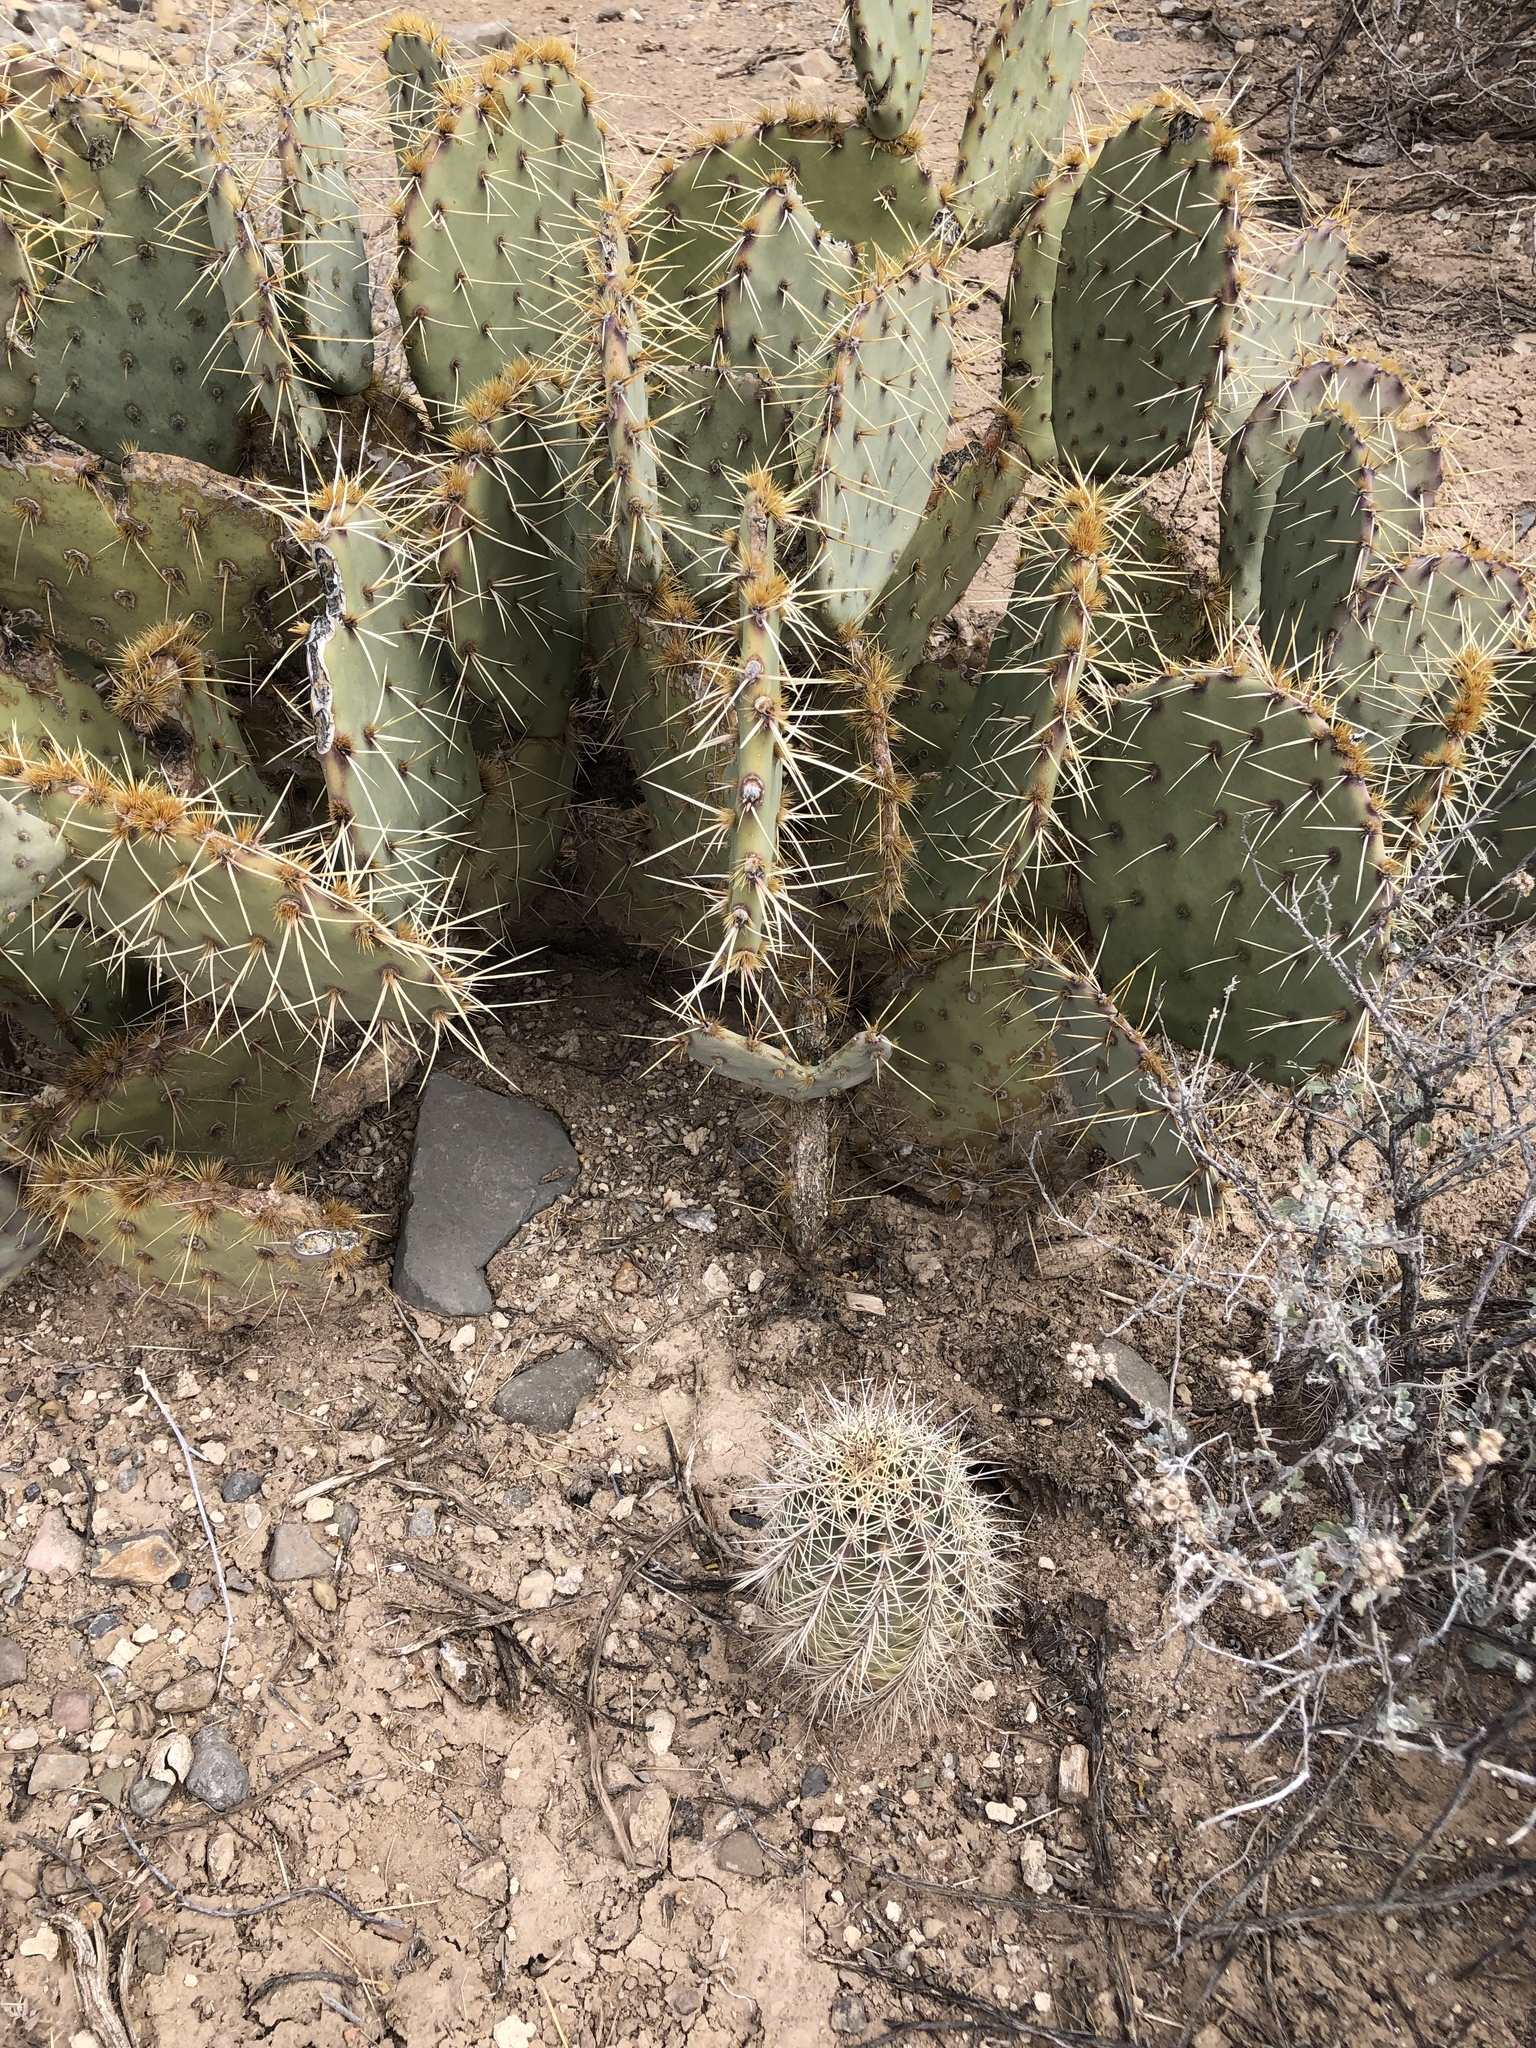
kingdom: Plantae
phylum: Tracheophyta
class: Magnoliopsida
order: Caryophyllales
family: Cactaceae
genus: Echinocereus
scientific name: Echinocereus coccineus
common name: Scarlet hedgehog cactus
